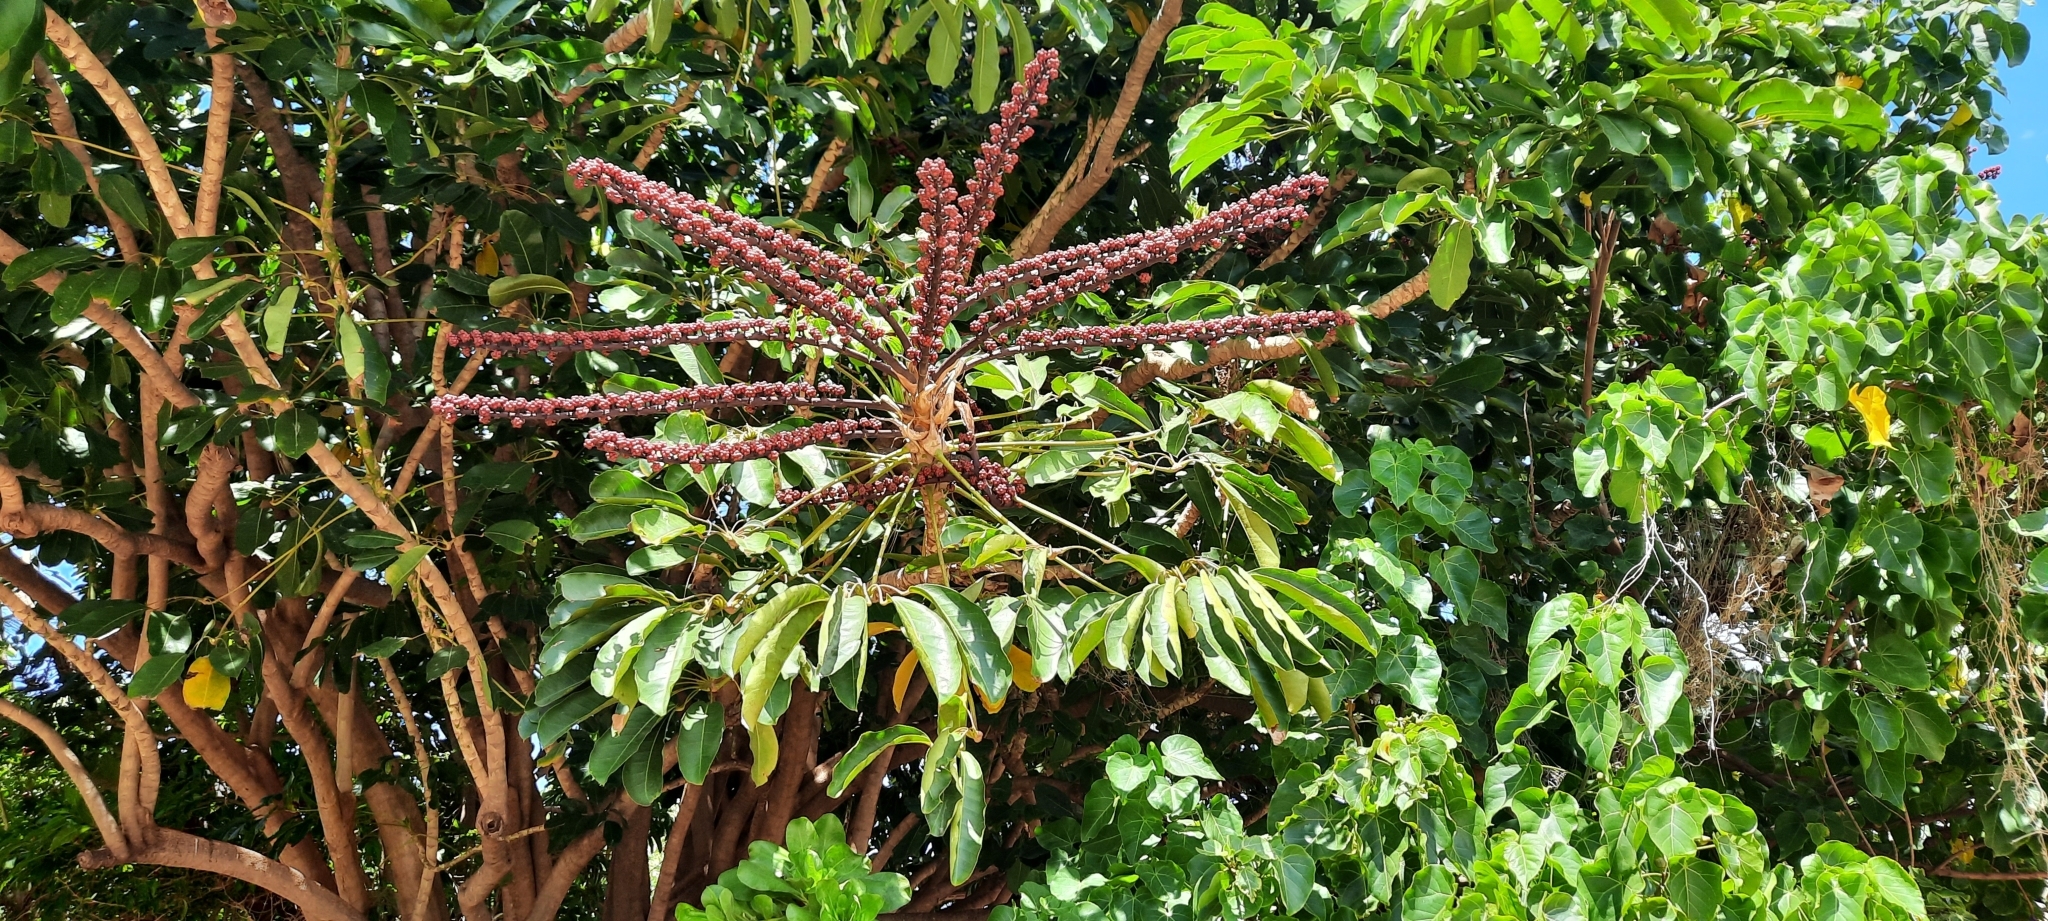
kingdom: Plantae
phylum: Tracheophyta
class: Magnoliopsida
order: Apiales
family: Araliaceae
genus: Heptapleurum
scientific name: Heptapleurum actinophyllum
